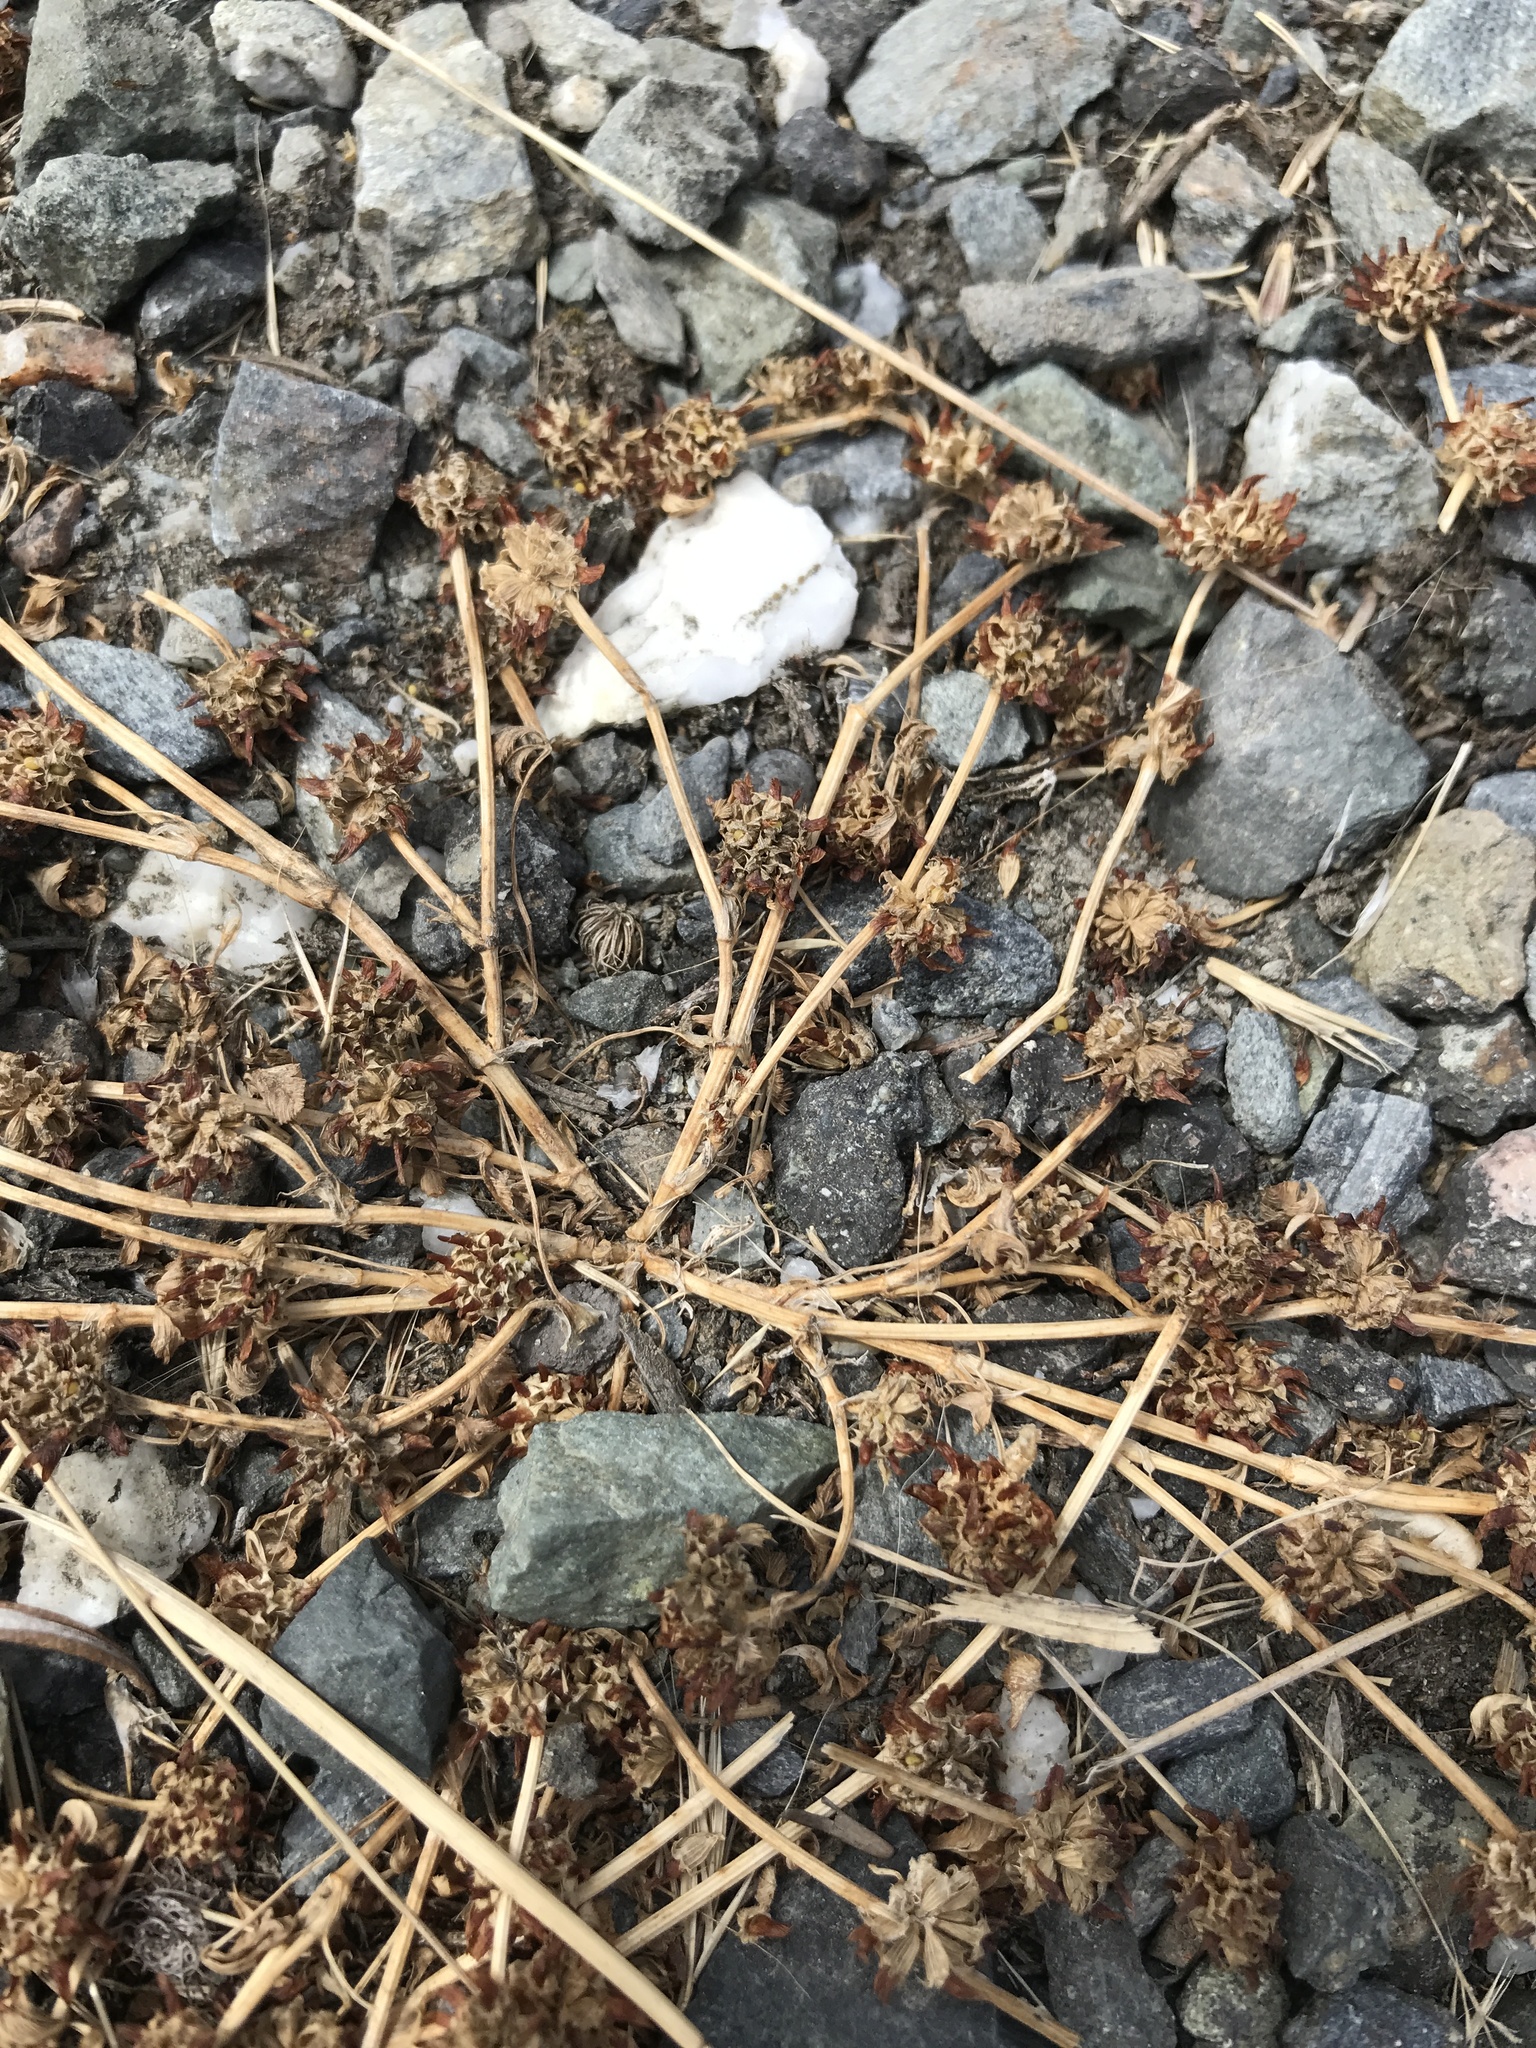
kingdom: Plantae
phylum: Tracheophyta
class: Magnoliopsida
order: Fabales
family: Fabaceae
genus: Trifolium
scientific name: Trifolium glomeratum
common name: Clustered clover
